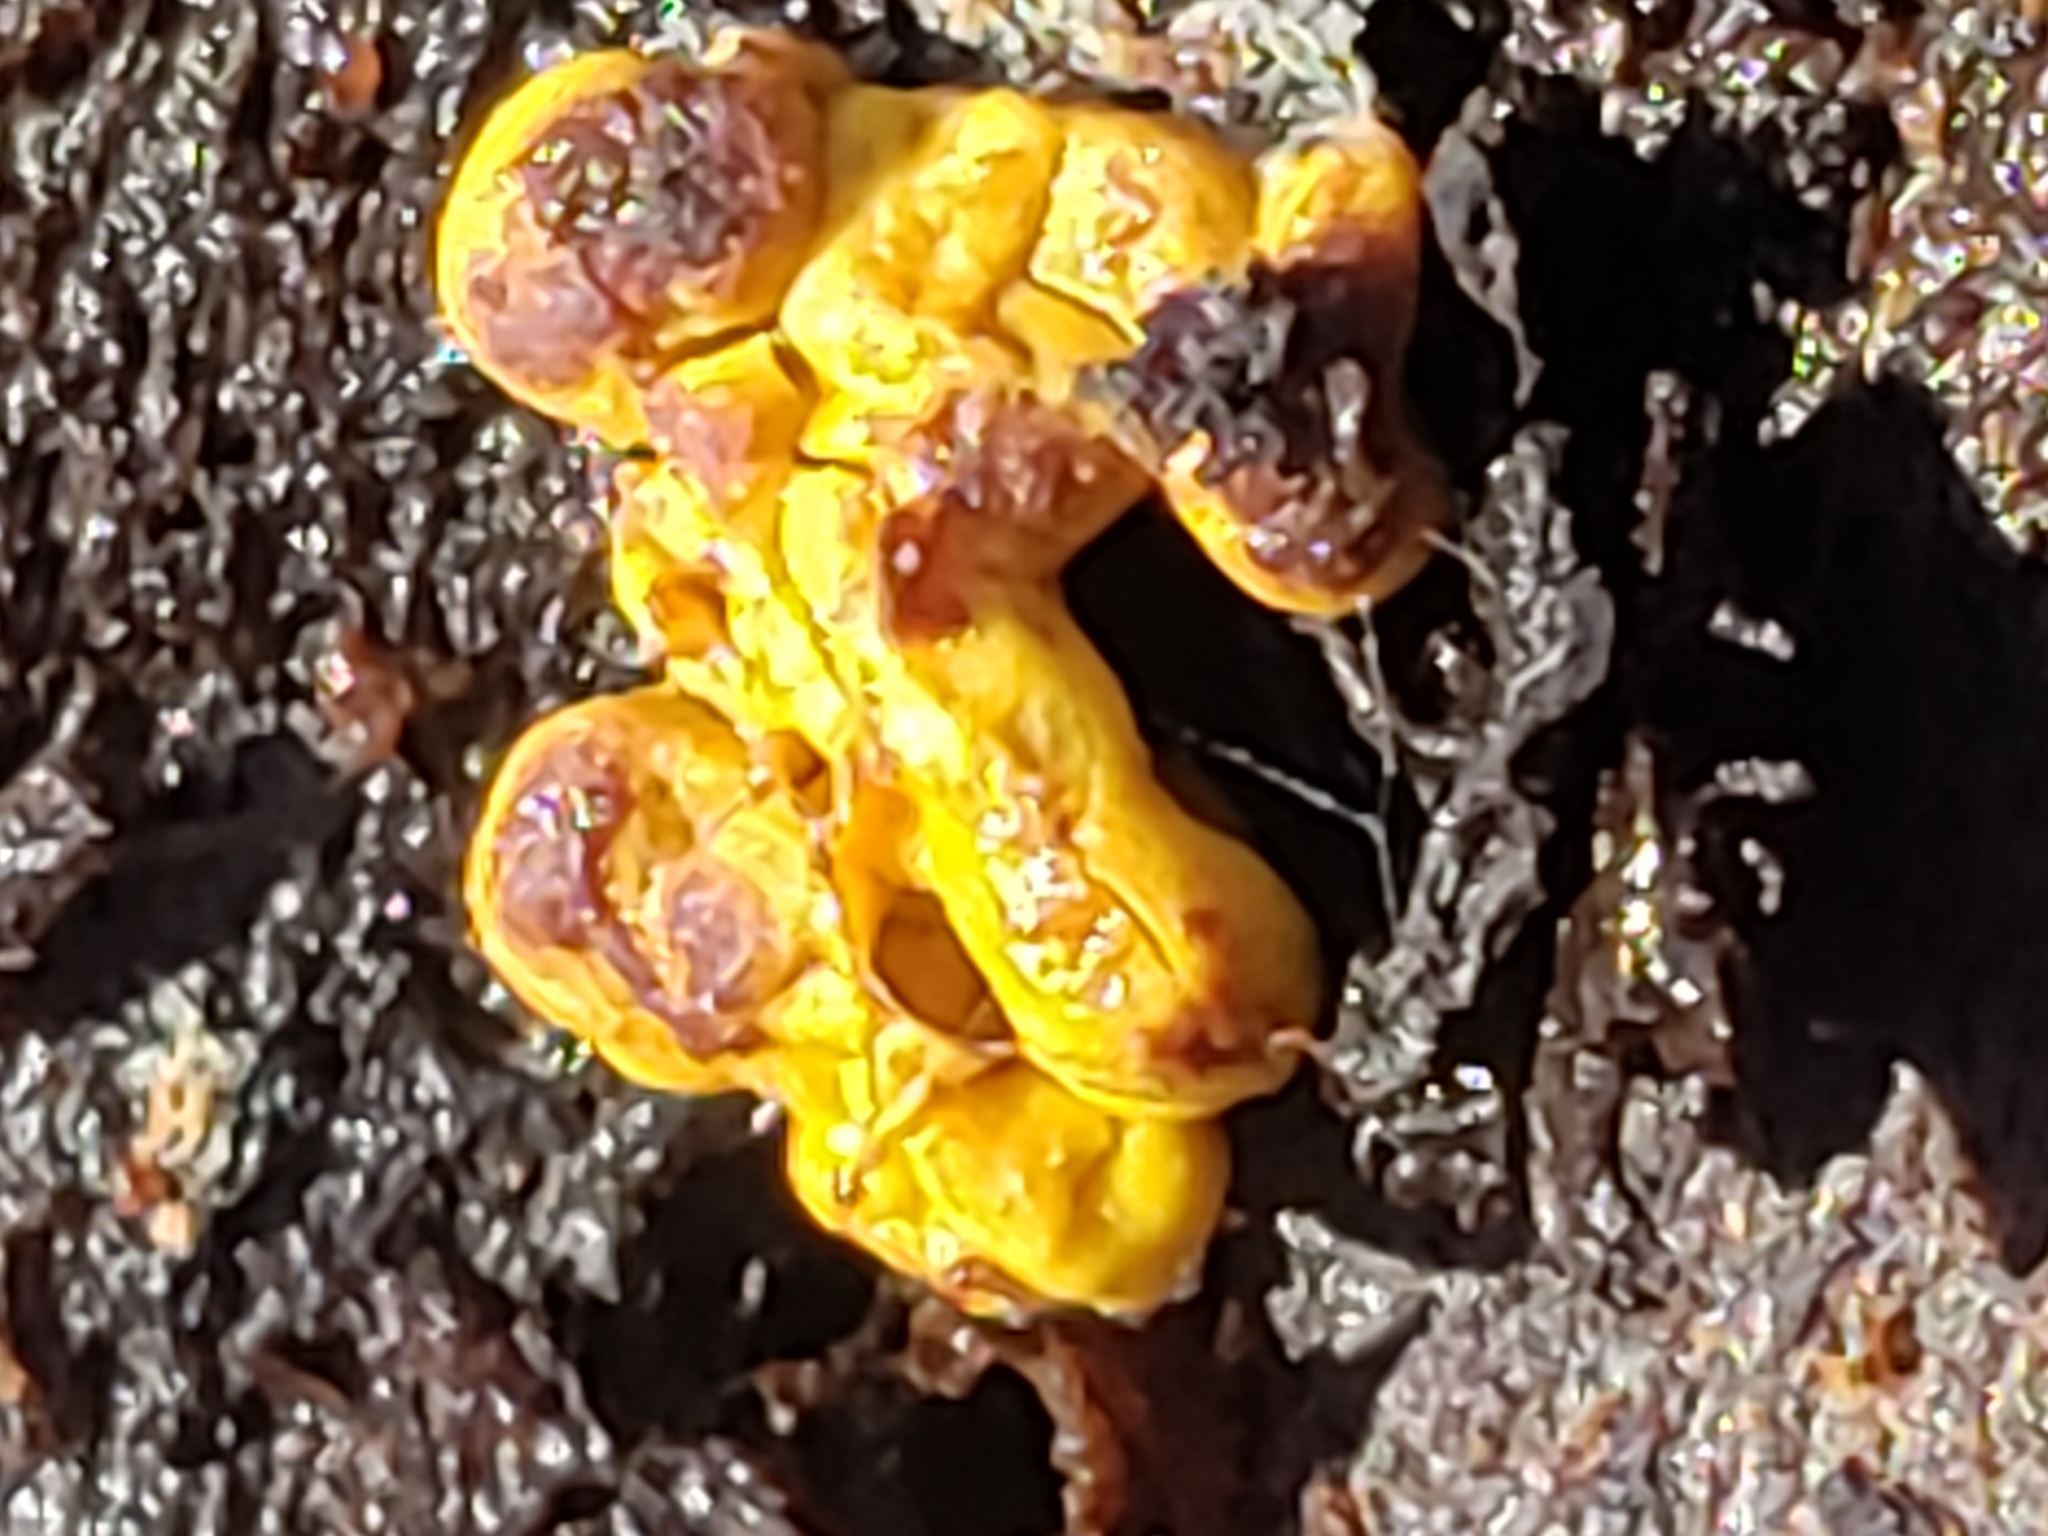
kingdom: Protozoa
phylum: Mycetozoa
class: Myxomycetes
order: Trichiales
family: Trichiaceae
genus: Perichaena
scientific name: Perichaena depressa
